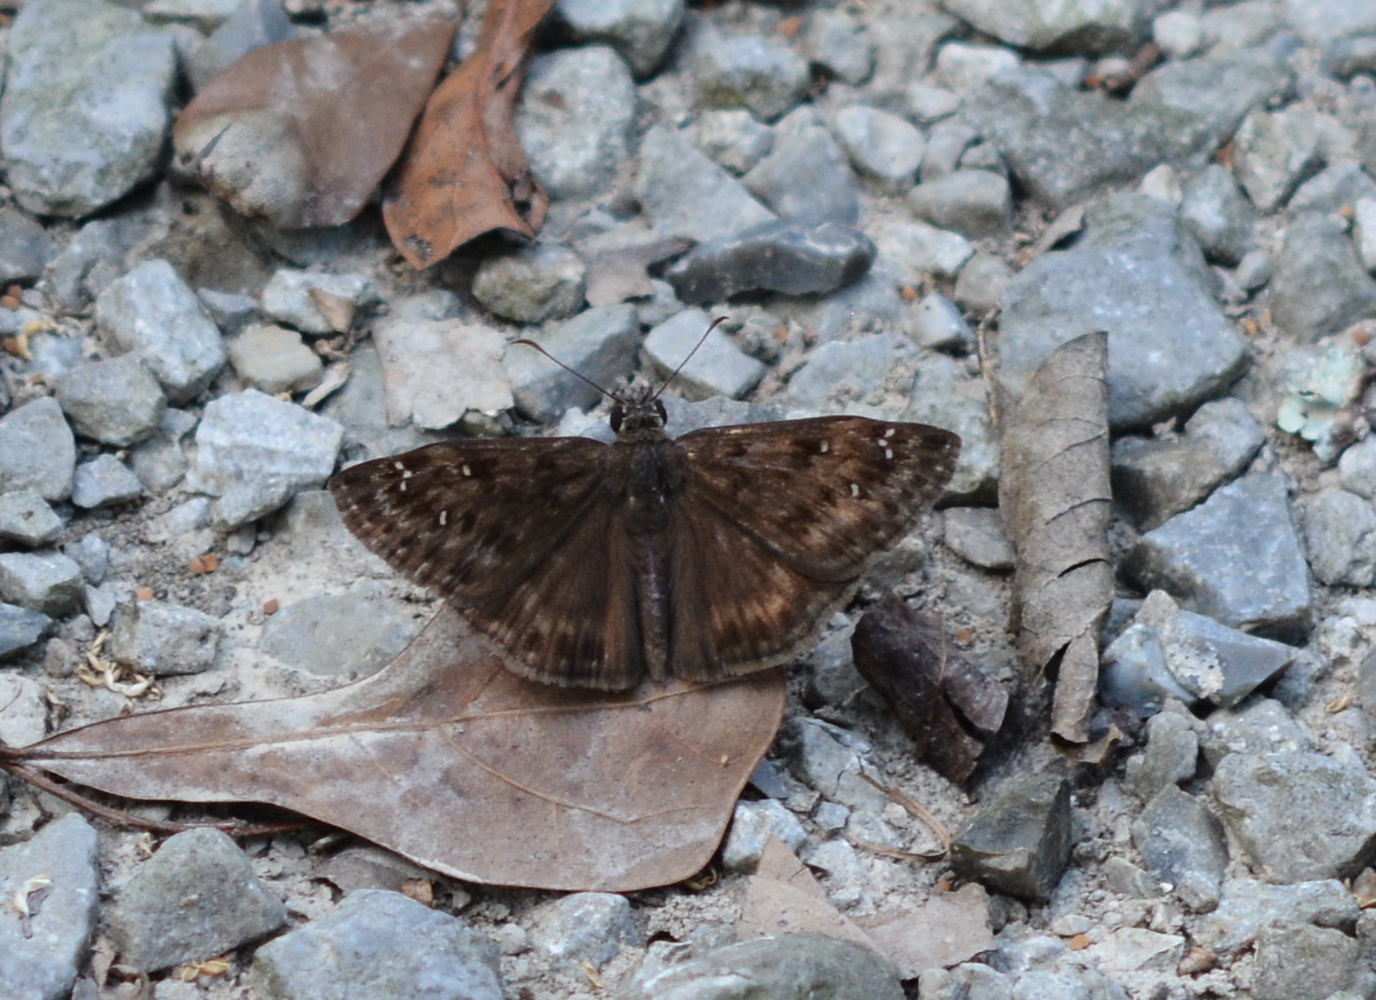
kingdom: Animalia
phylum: Arthropoda
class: Insecta
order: Lepidoptera
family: Hesperiidae
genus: Erynnis
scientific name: Erynnis horatius
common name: Horace's duskywing
